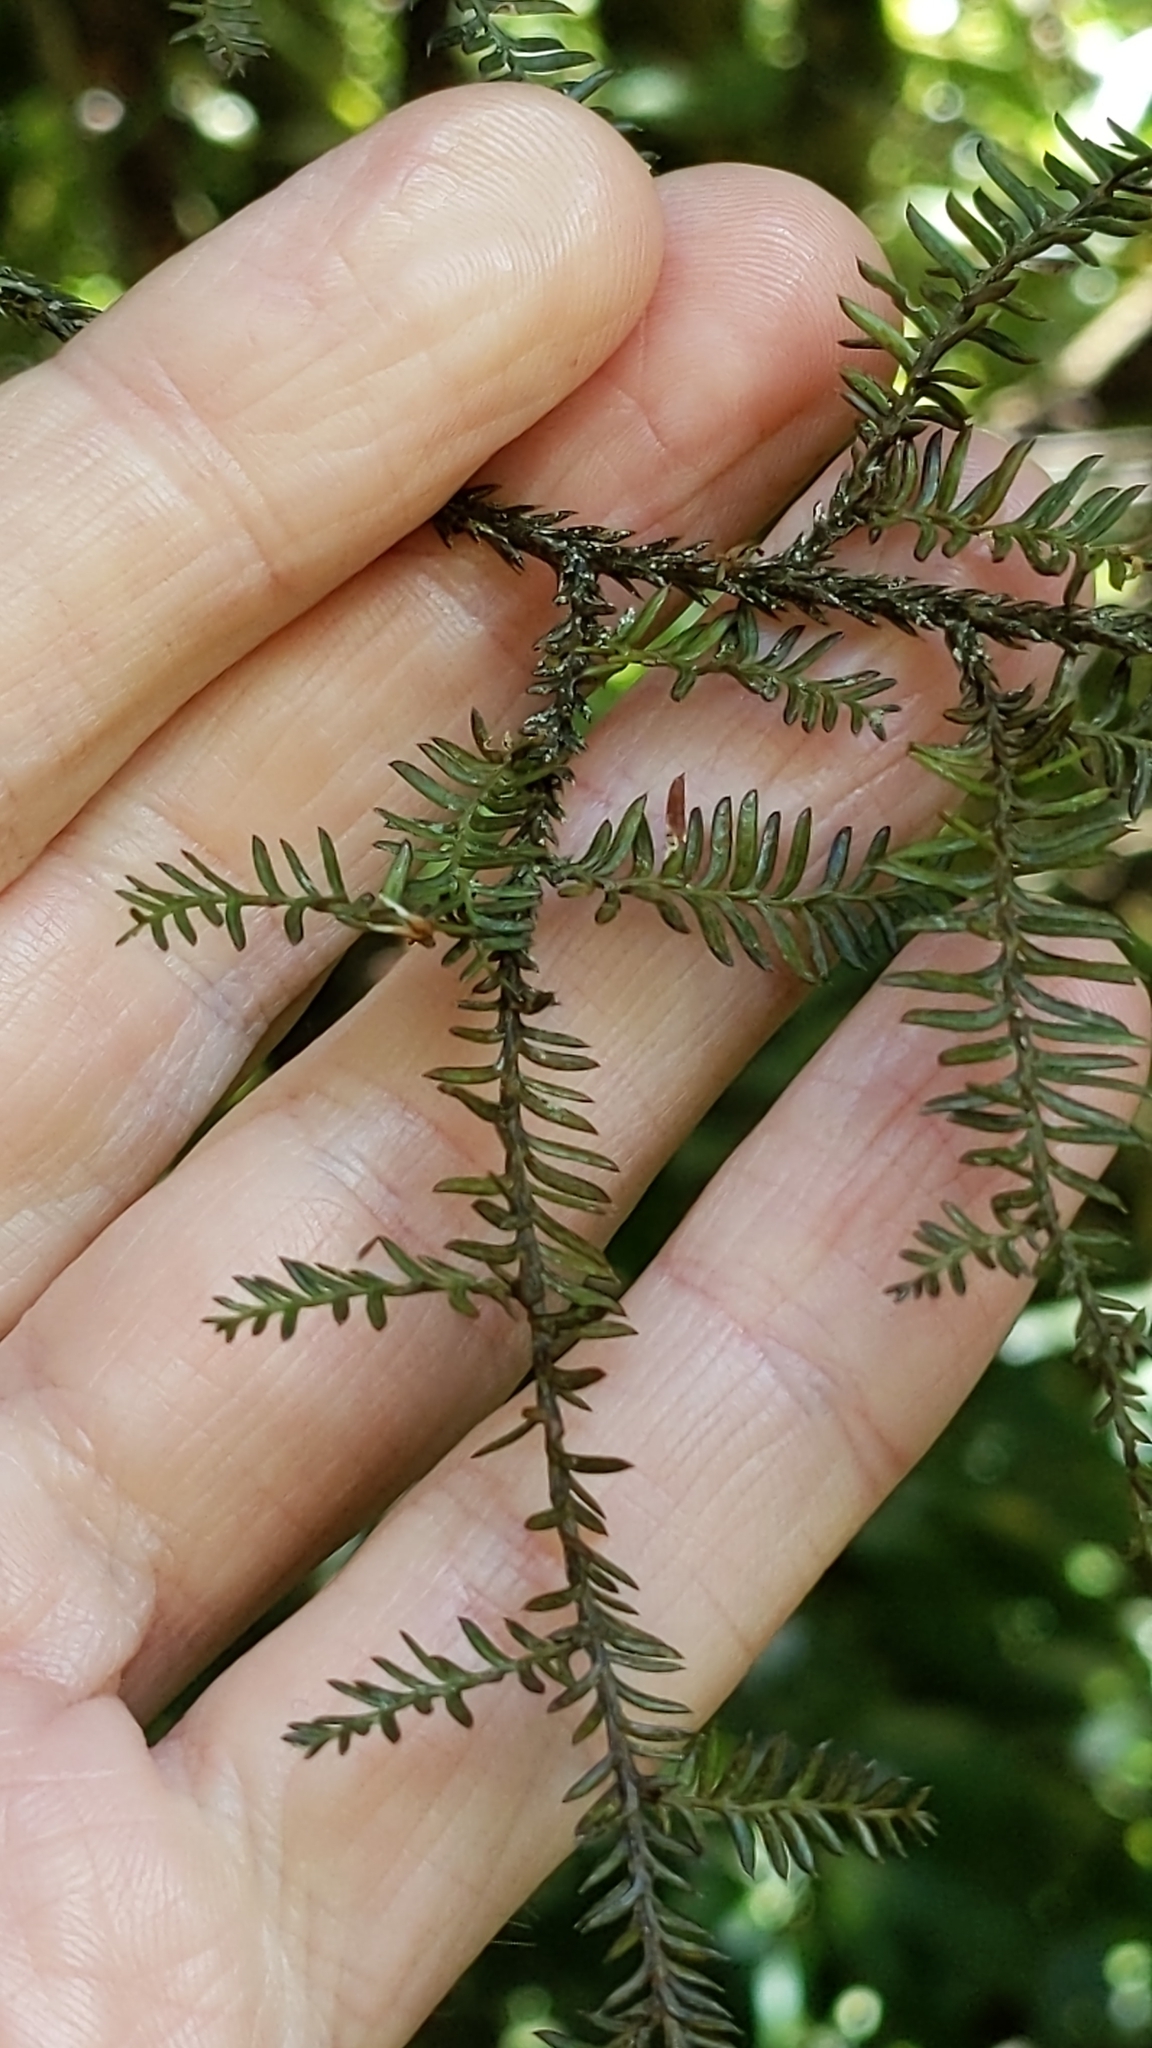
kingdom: Plantae
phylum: Tracheophyta
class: Pinopsida
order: Pinales
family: Podocarpaceae
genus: Dacrycarpus
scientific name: Dacrycarpus dacrydioides
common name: White pine
